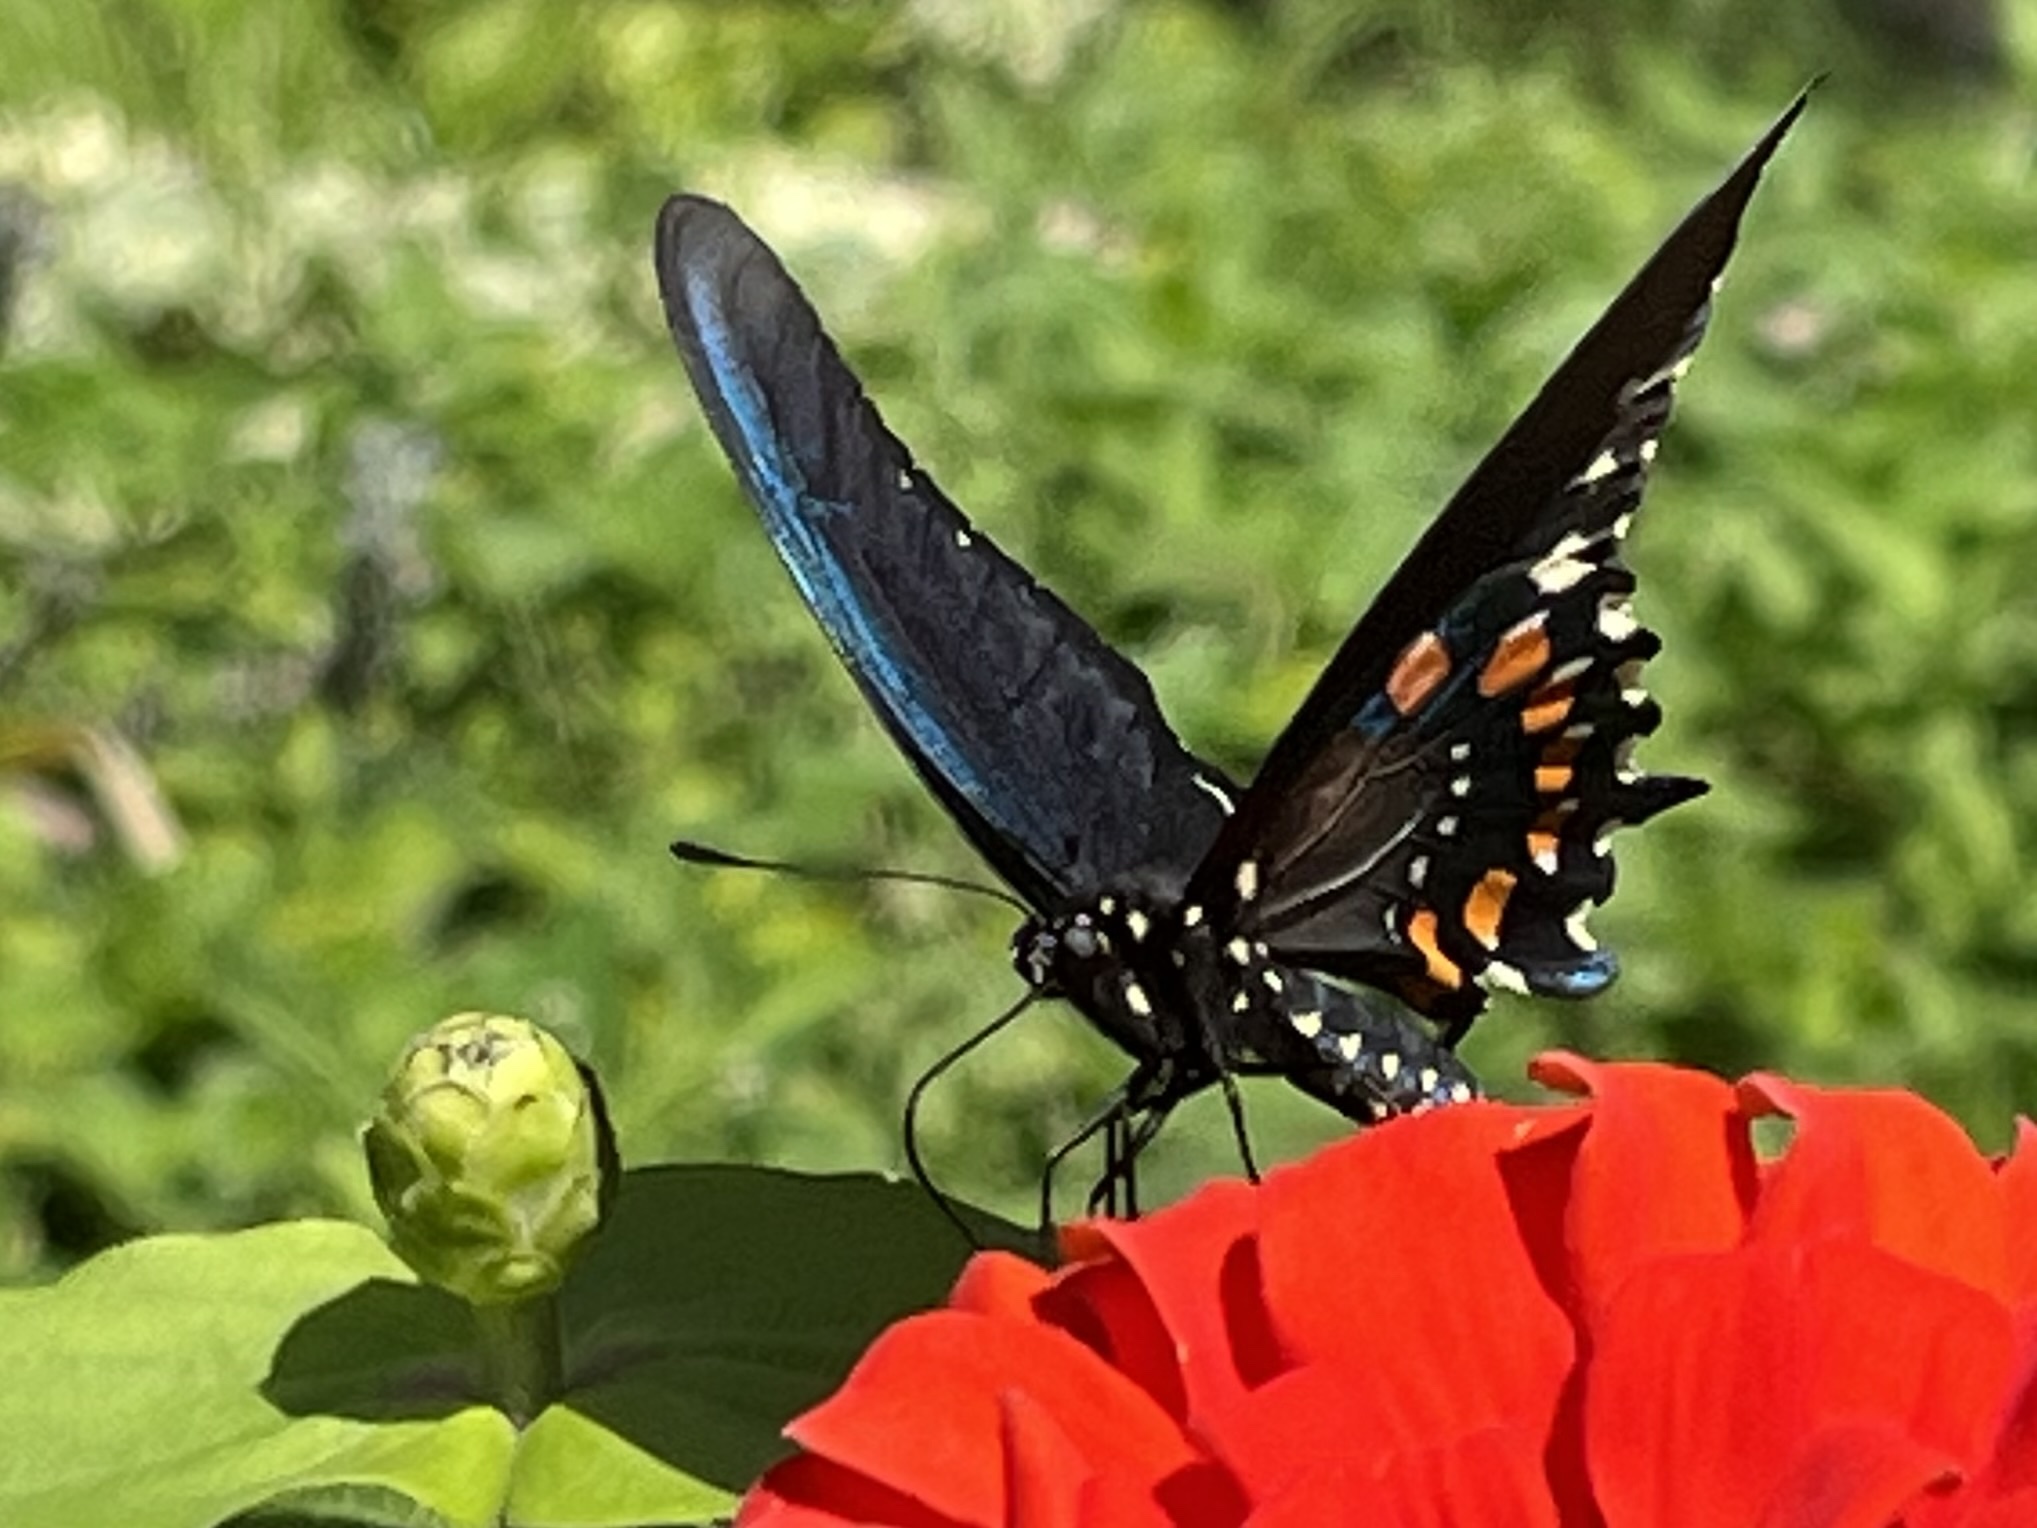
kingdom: Animalia
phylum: Arthropoda
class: Insecta
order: Lepidoptera
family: Papilionidae
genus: Battus
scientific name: Battus philenor
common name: Pipevine swallowtail
